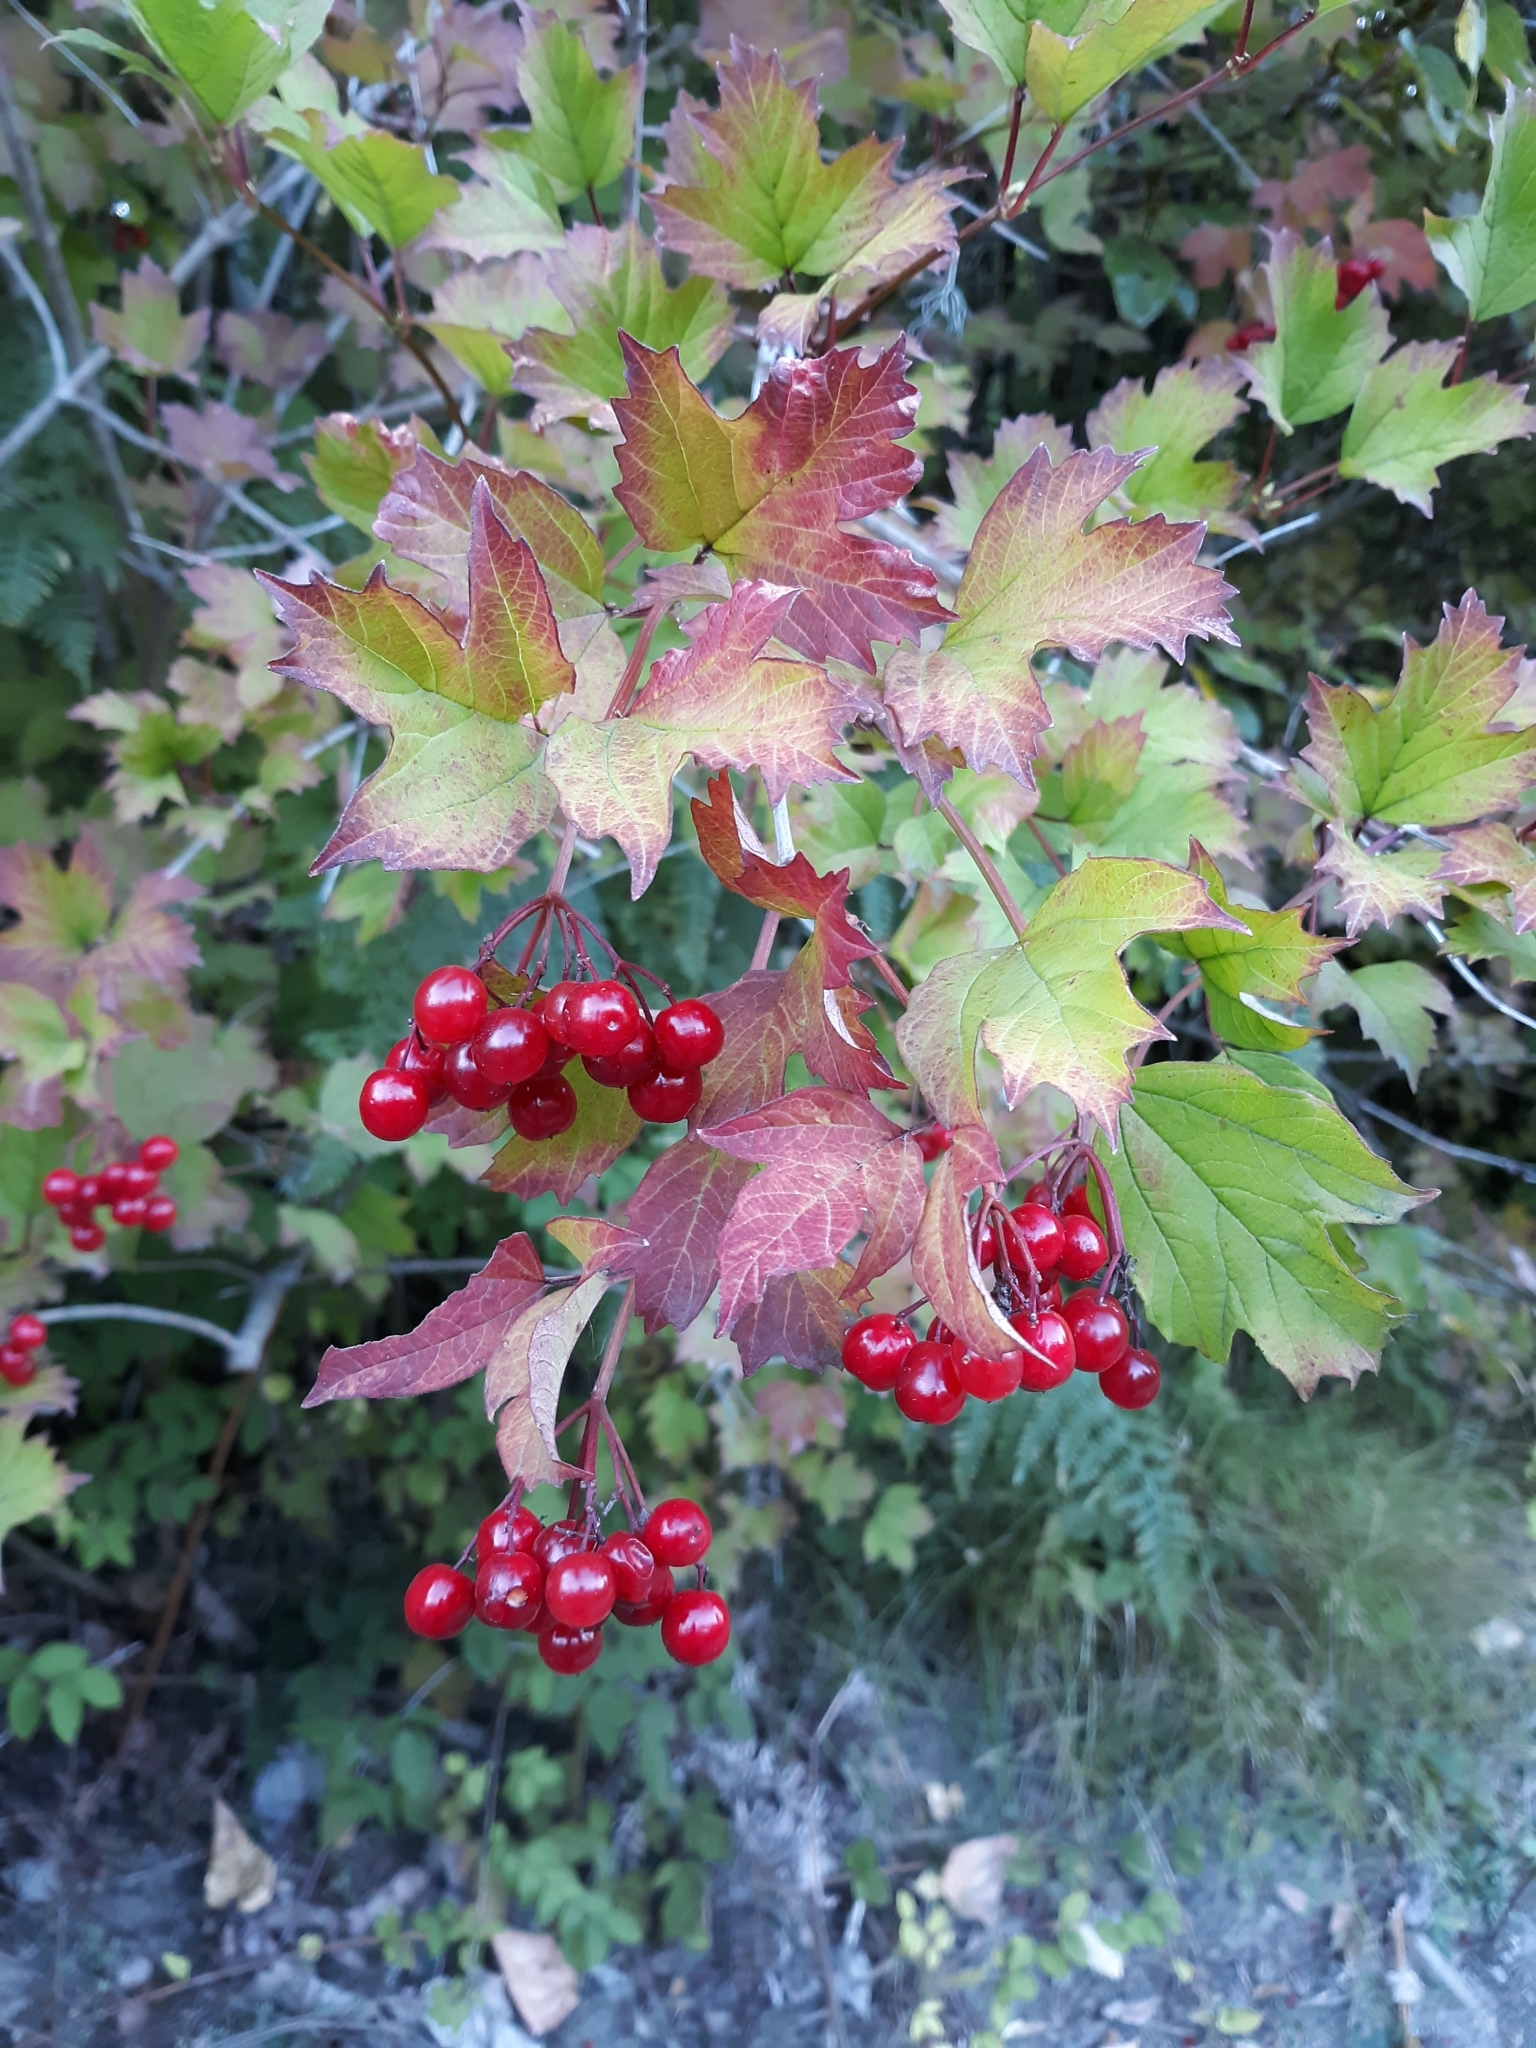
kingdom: Plantae
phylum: Tracheophyta
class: Magnoliopsida
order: Dipsacales
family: Viburnaceae
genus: Viburnum
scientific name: Viburnum opulus
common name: Guelder-rose
